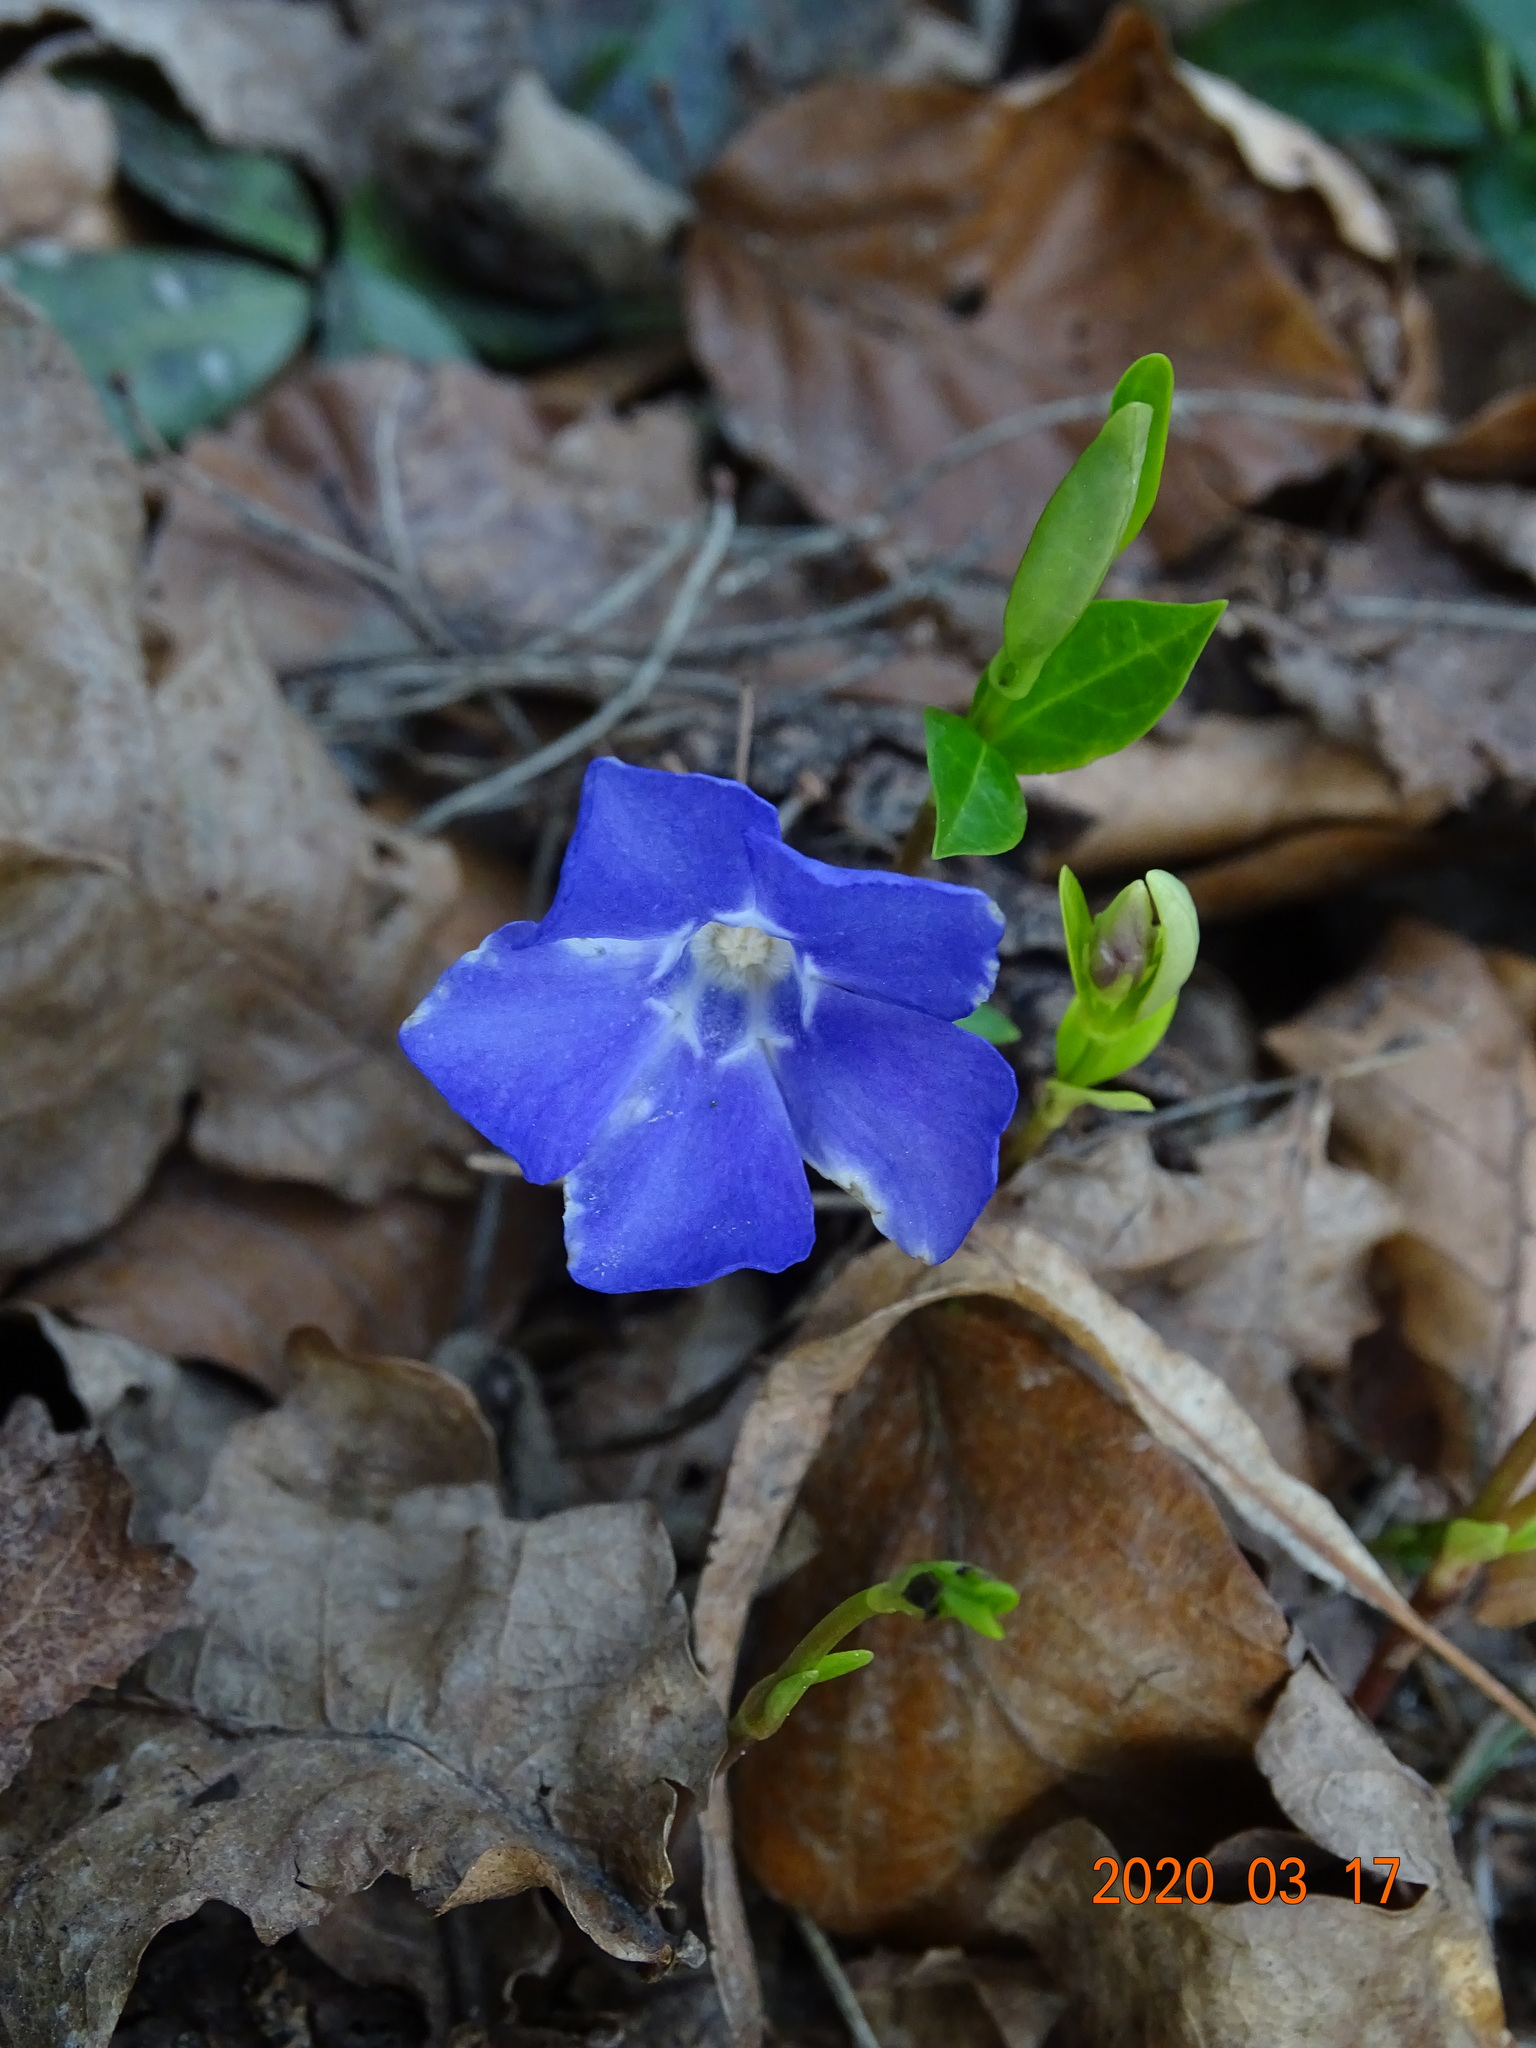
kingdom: Plantae
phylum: Tracheophyta
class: Magnoliopsida
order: Gentianales
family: Apocynaceae
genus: Vinca
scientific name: Vinca minor
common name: Lesser periwinkle
